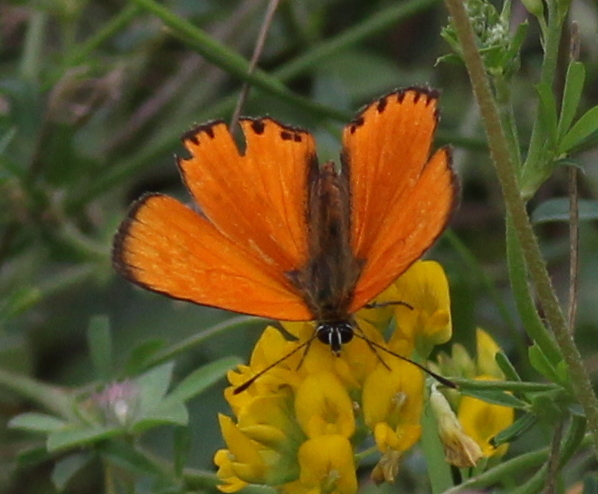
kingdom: Animalia
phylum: Arthropoda
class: Insecta
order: Lepidoptera
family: Lycaenidae
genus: Lycaena
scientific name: Lycaena virgaureae
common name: Scarce copper
